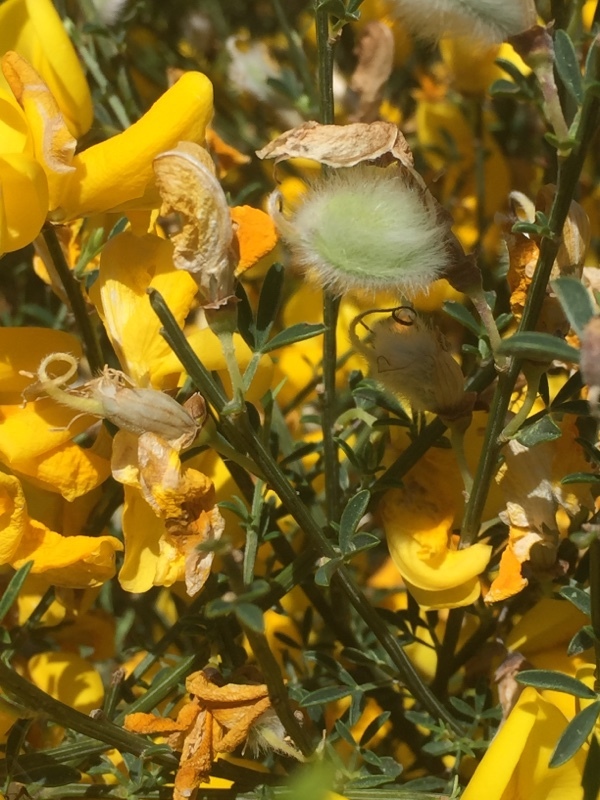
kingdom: Plantae
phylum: Tracheophyta
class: Magnoliopsida
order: Fabales
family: Fabaceae
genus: Cytisus
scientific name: Cytisus striatus
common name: Hairy-fruited broom
